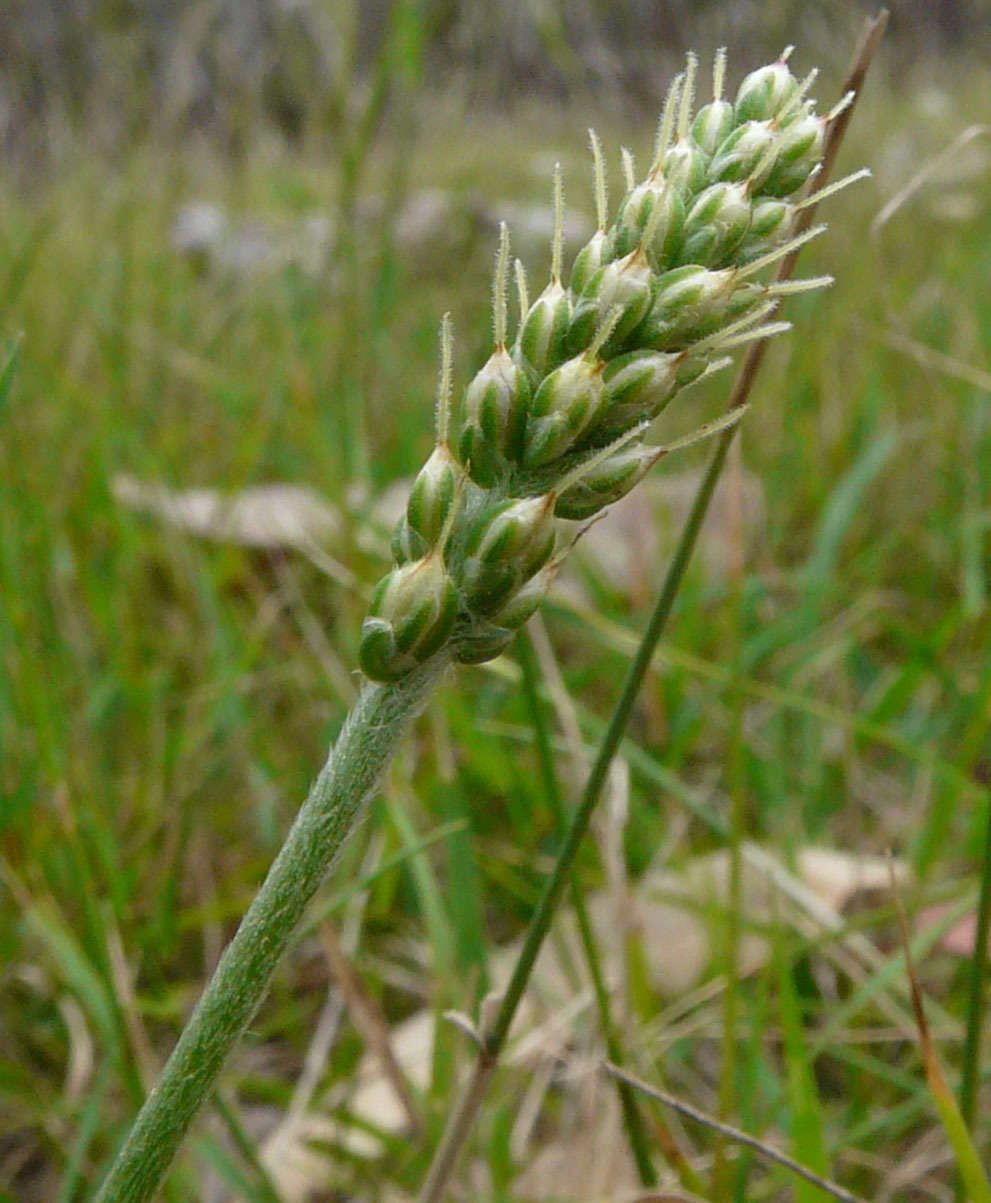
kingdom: Plantae
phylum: Tracheophyta
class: Magnoliopsida
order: Lamiales
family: Plantaginaceae
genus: Plantago
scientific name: Plantago gaudichaudii
